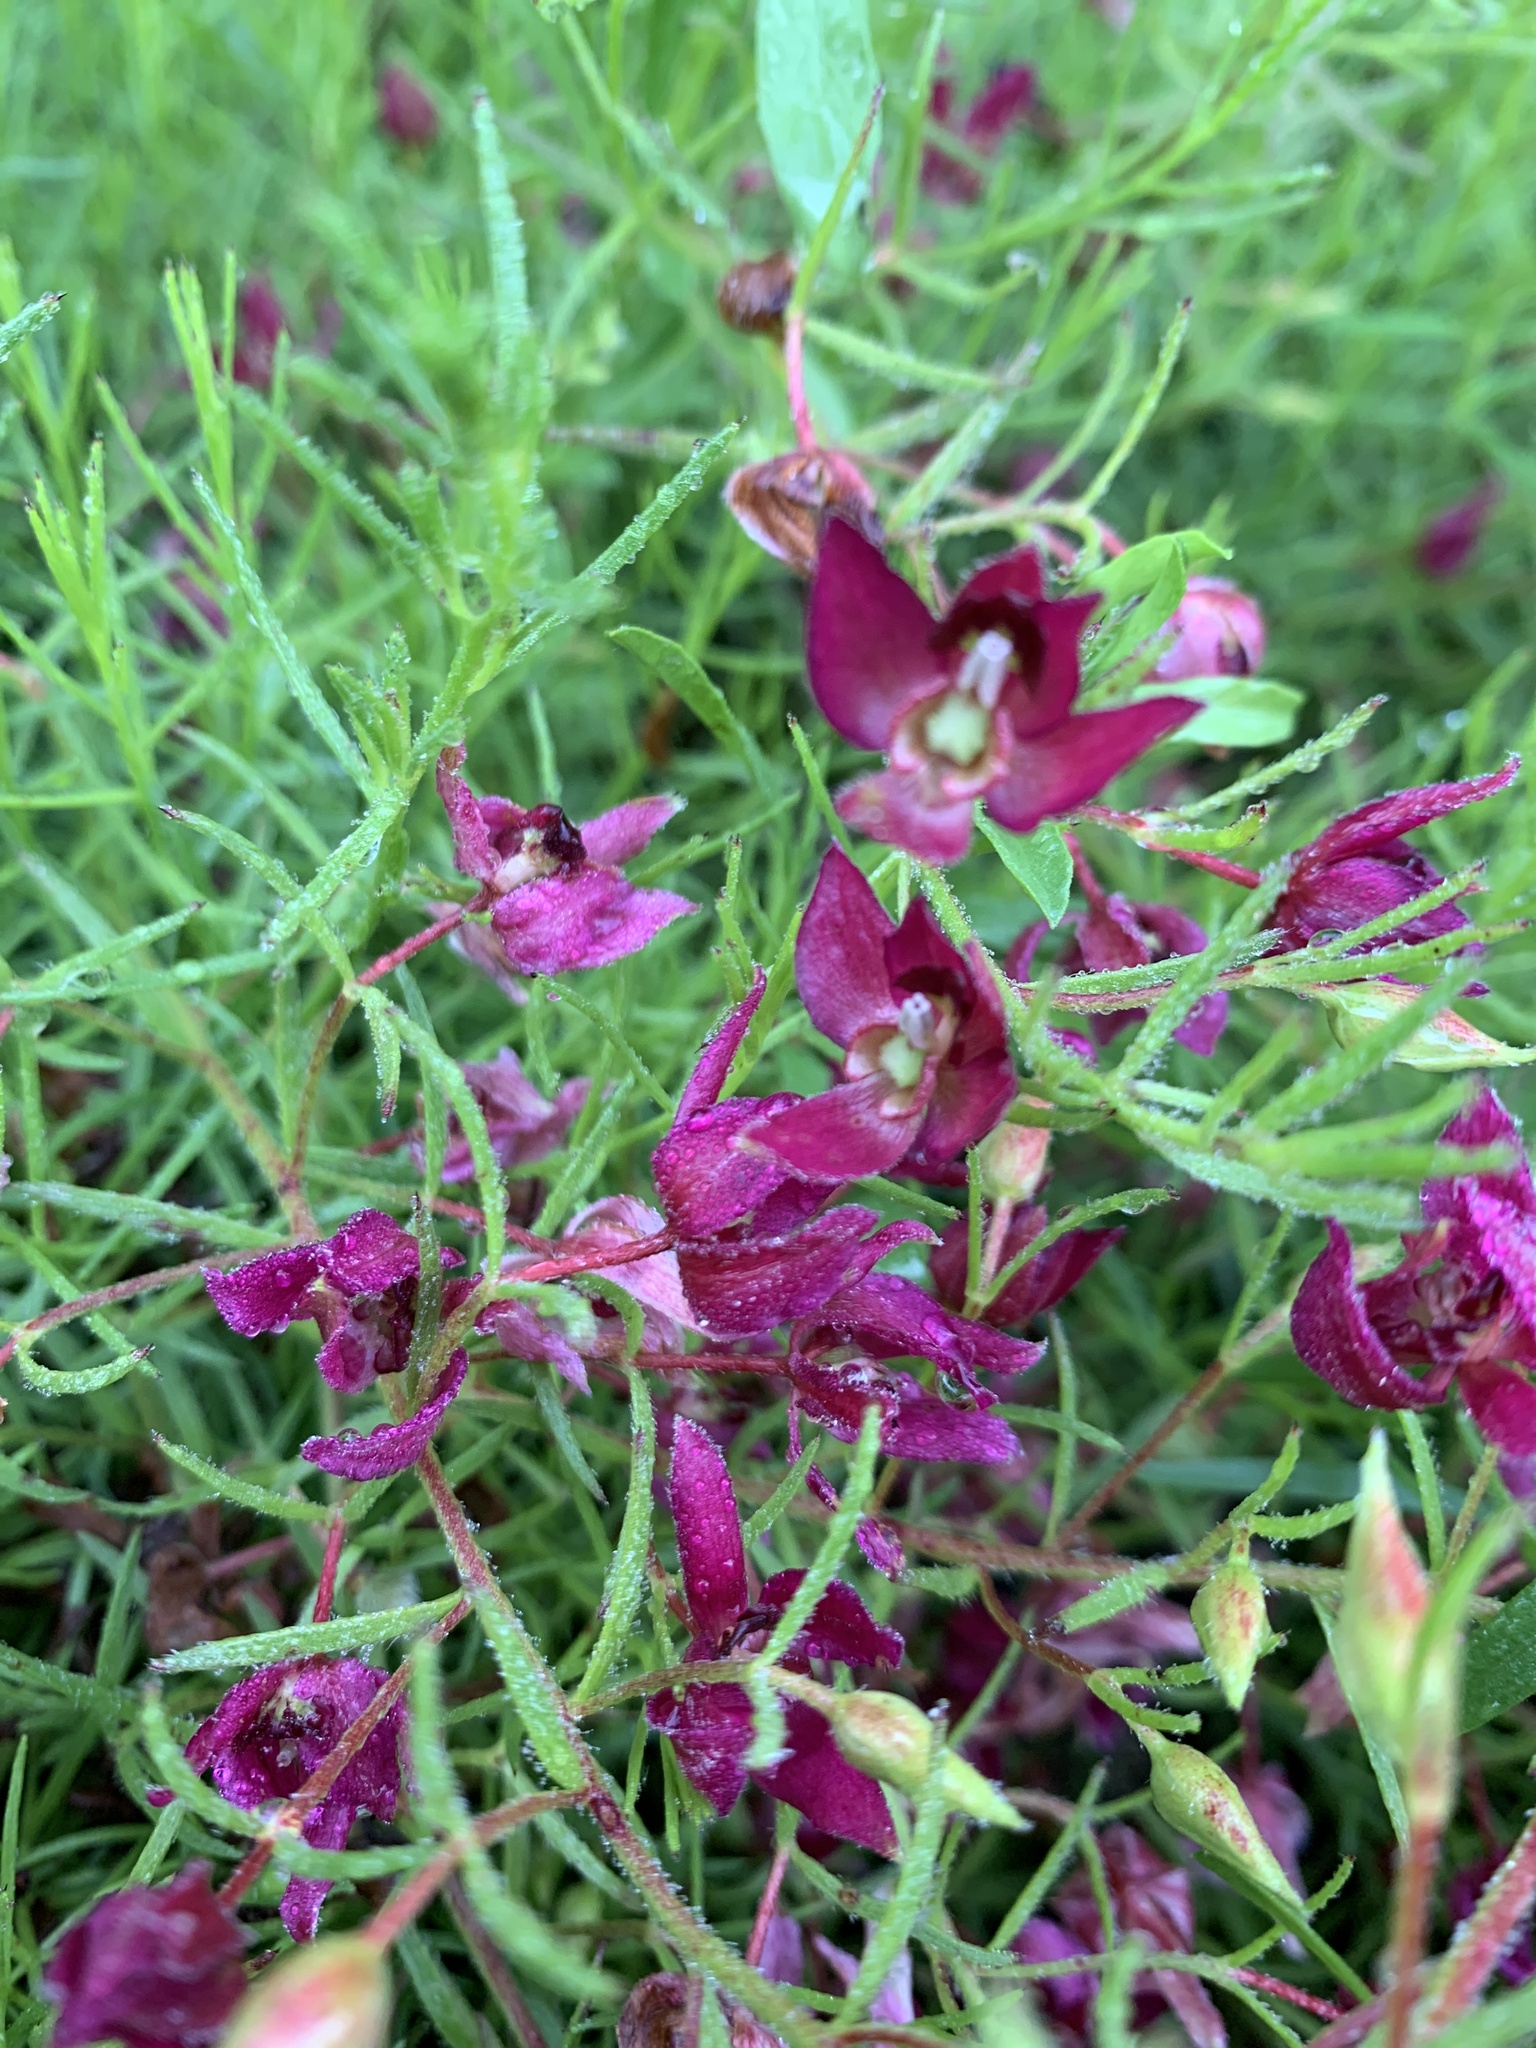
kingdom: Plantae
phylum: Tracheophyta
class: Magnoliopsida
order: Zygophyllales
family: Krameriaceae
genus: Krameria
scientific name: Krameria lanceolata
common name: Ratany
